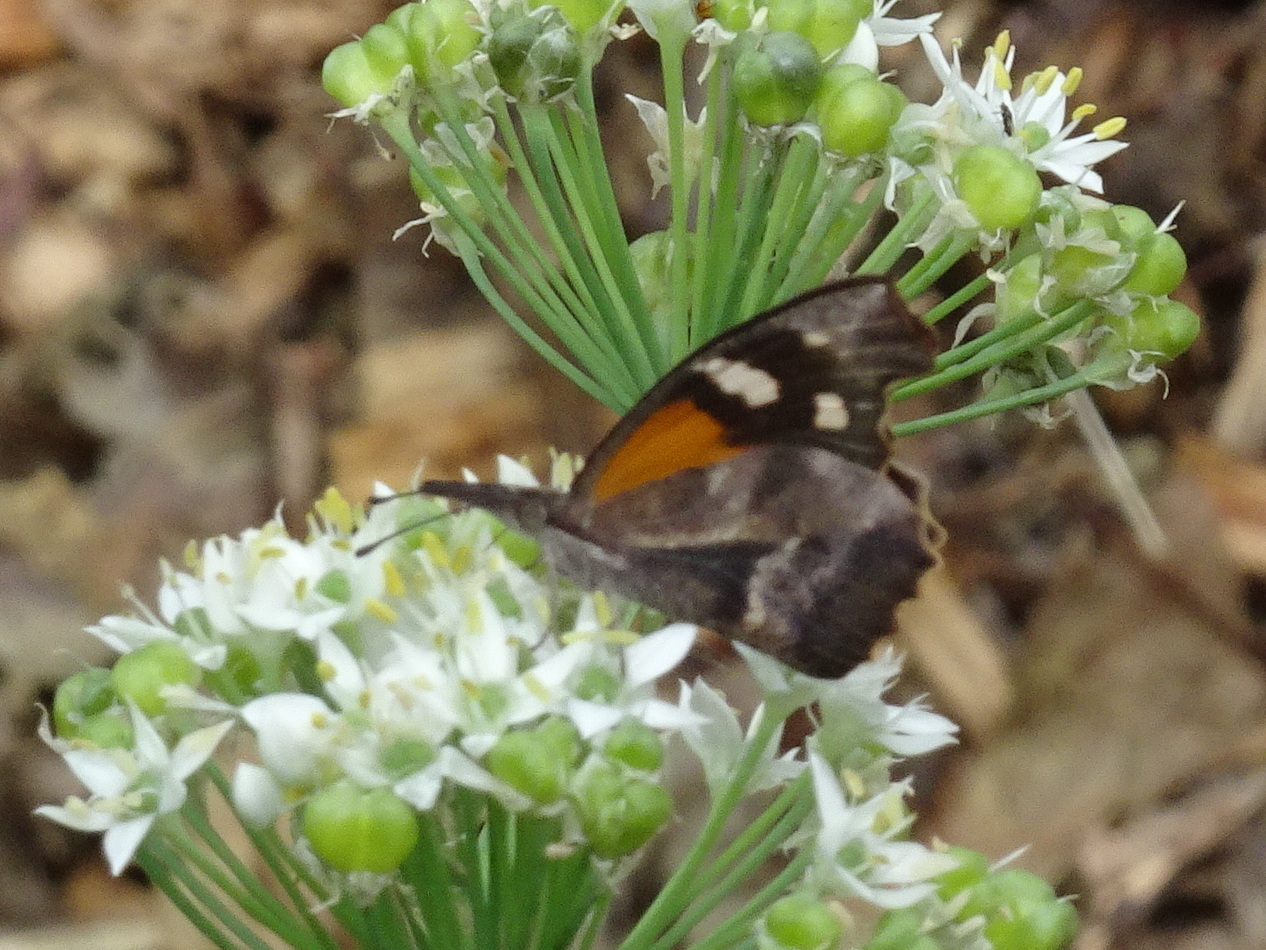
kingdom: Animalia
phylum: Arthropoda
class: Insecta
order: Lepidoptera
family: Nymphalidae
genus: Libytheana
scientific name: Libytheana carinenta
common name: American snout
